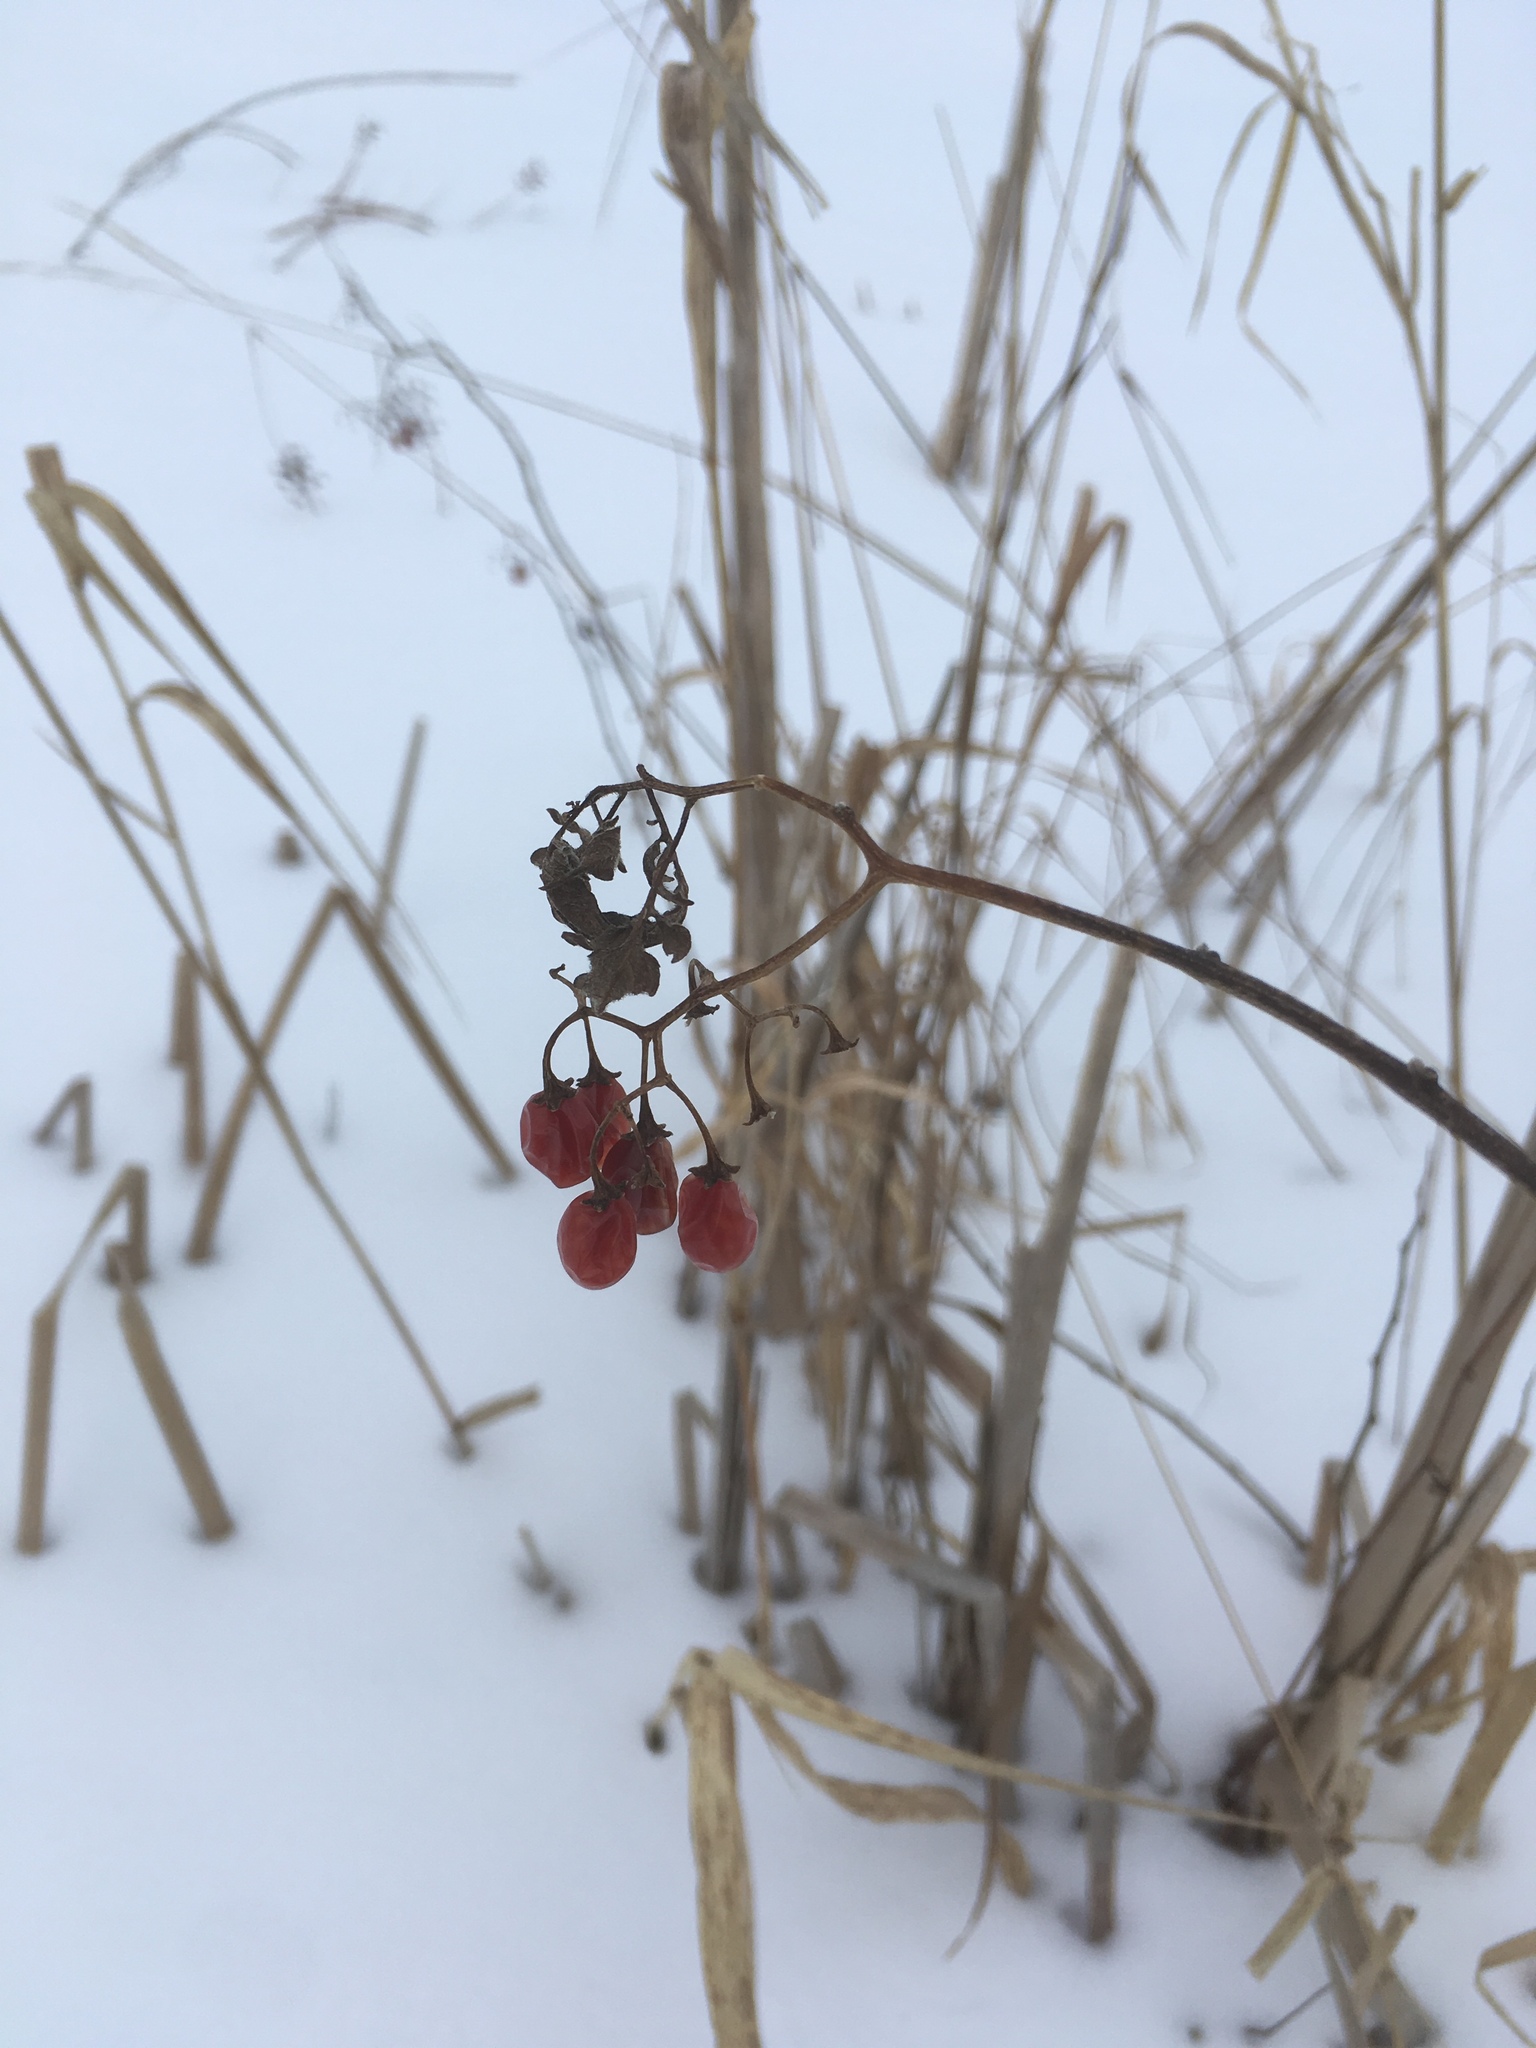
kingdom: Plantae
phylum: Tracheophyta
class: Magnoliopsida
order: Solanales
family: Solanaceae
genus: Solanum
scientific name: Solanum dulcamara
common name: Climbing nightshade
